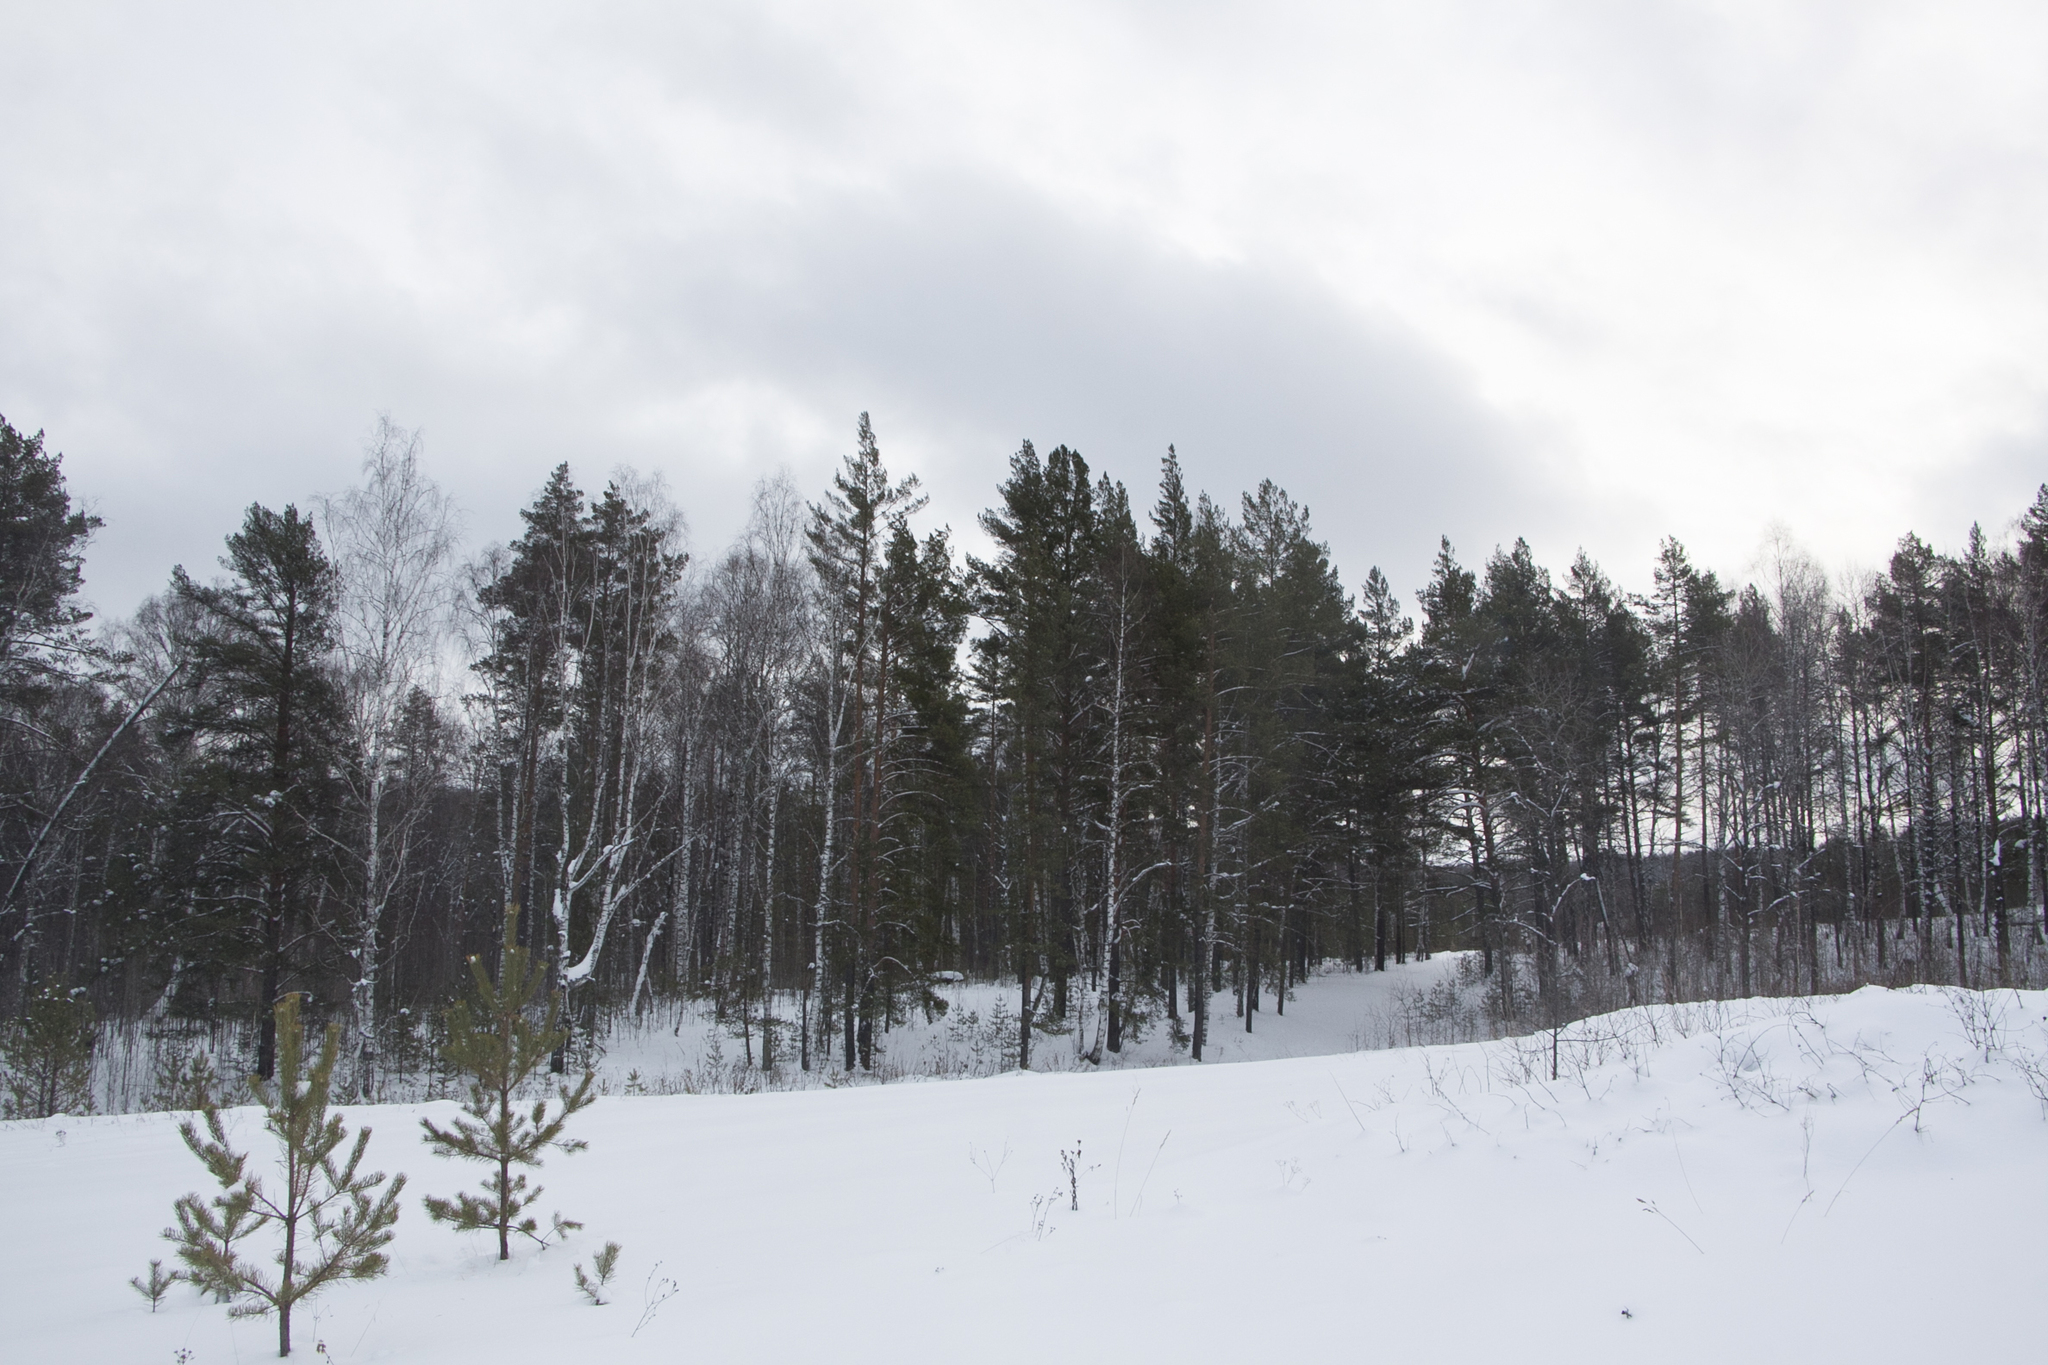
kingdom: Plantae
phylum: Tracheophyta
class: Pinopsida
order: Pinales
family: Pinaceae
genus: Pinus
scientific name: Pinus sylvestris
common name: Scots pine
